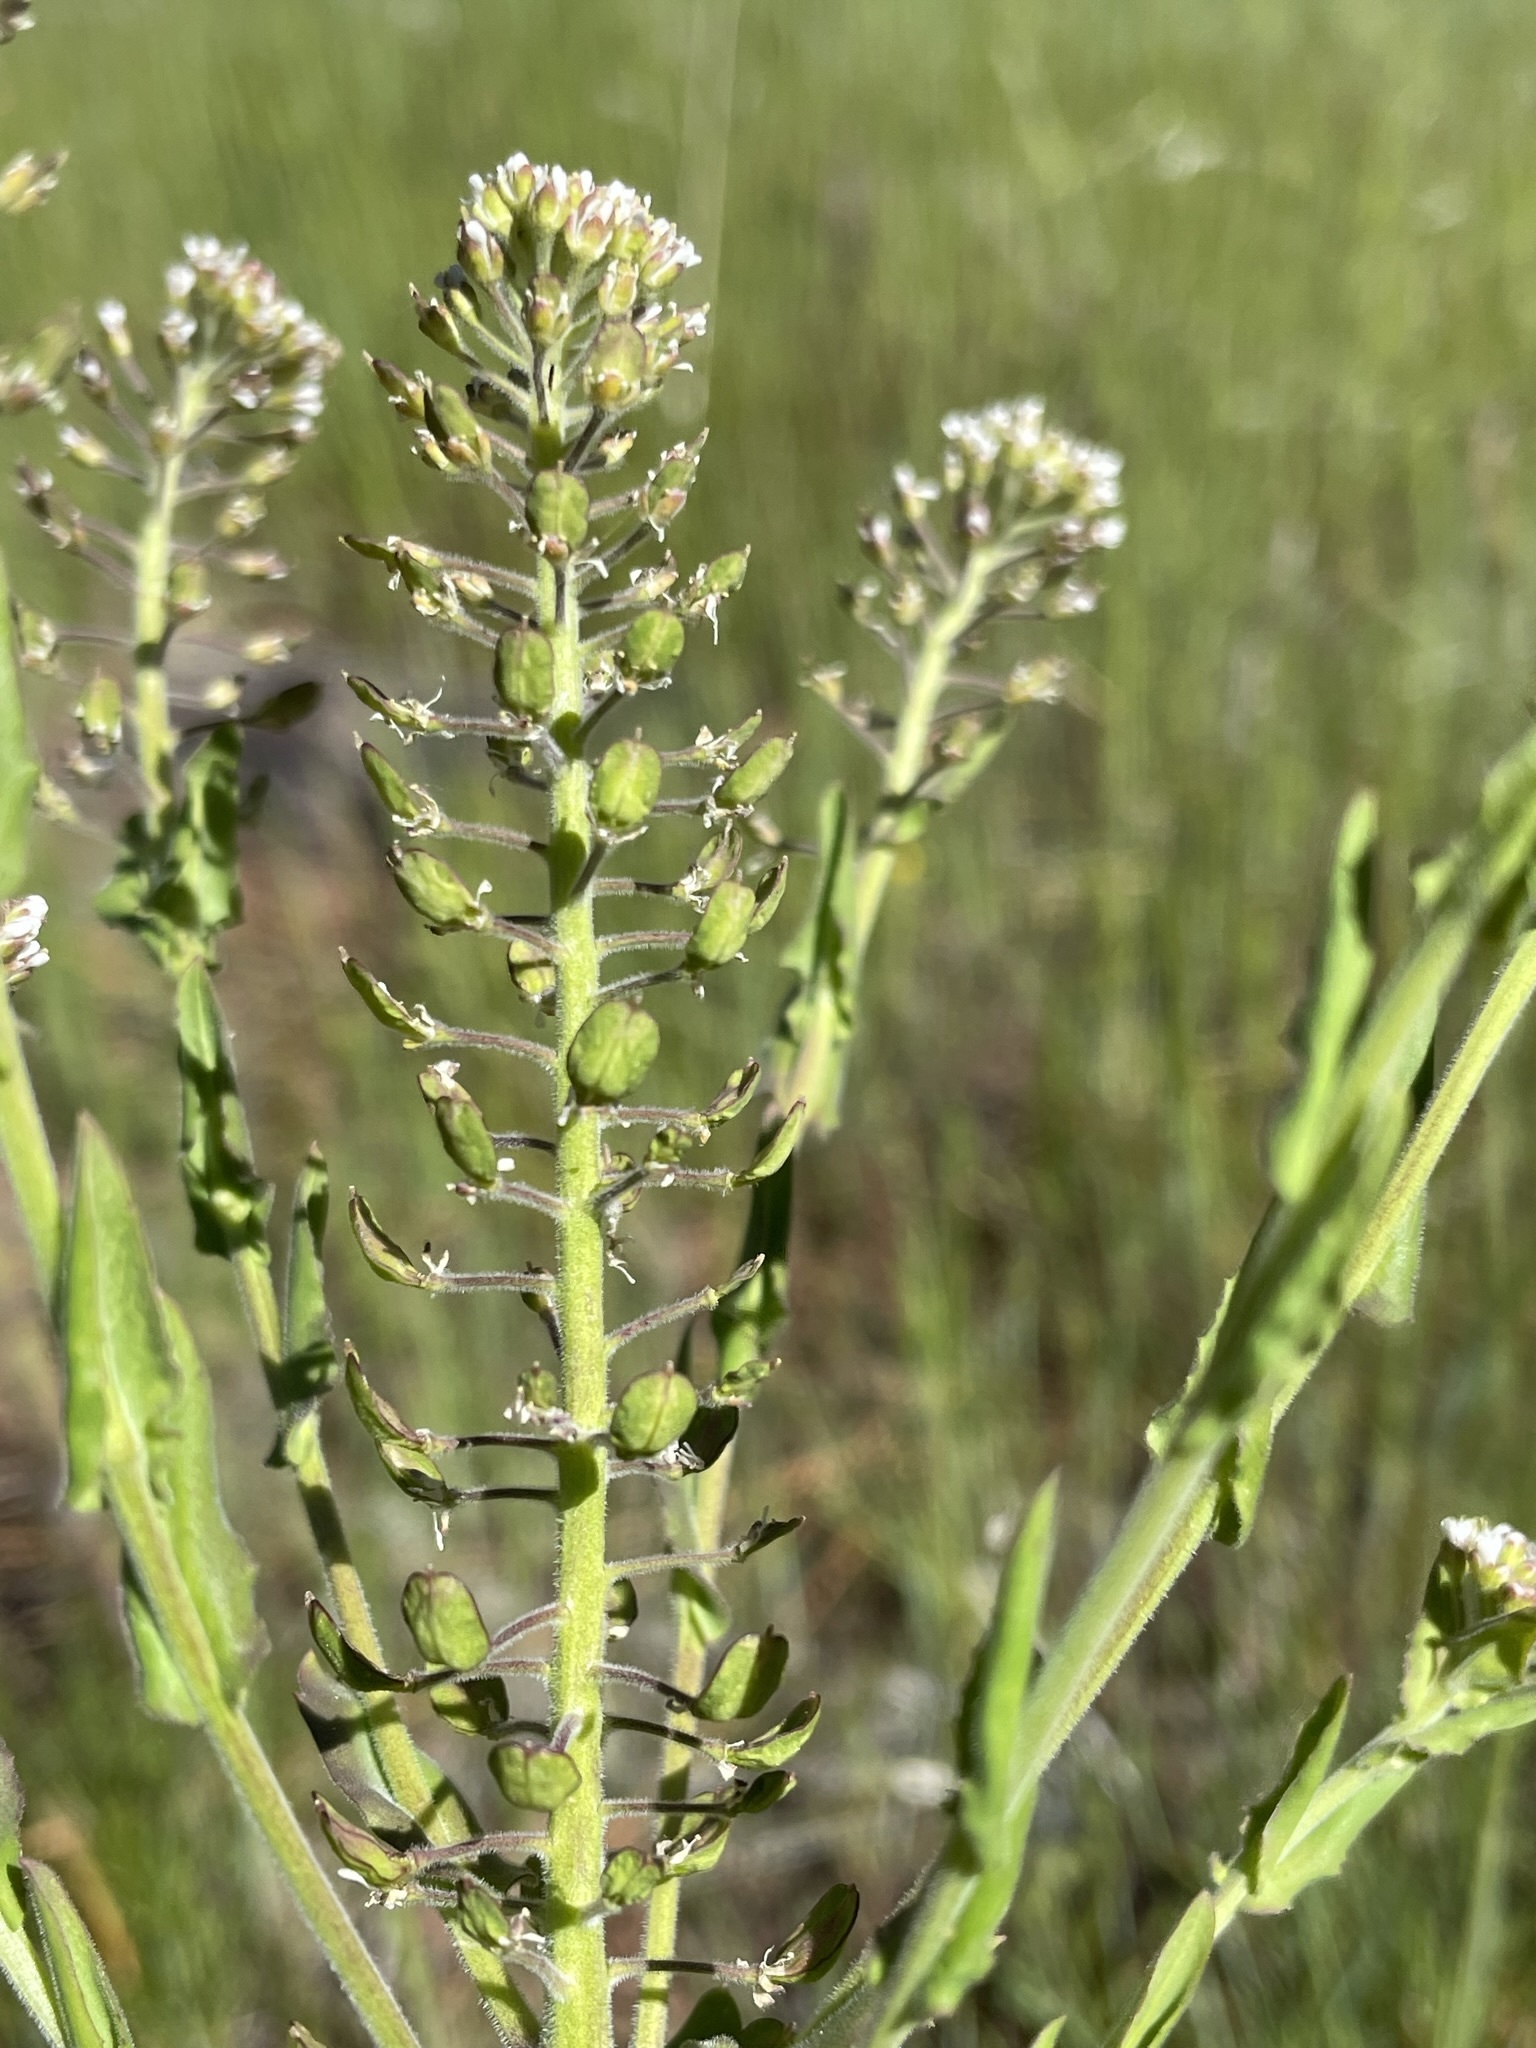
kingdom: Plantae
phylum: Tracheophyta
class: Magnoliopsida
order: Brassicales
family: Brassicaceae
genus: Lepidium
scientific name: Lepidium campestre
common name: Field pepperwort
